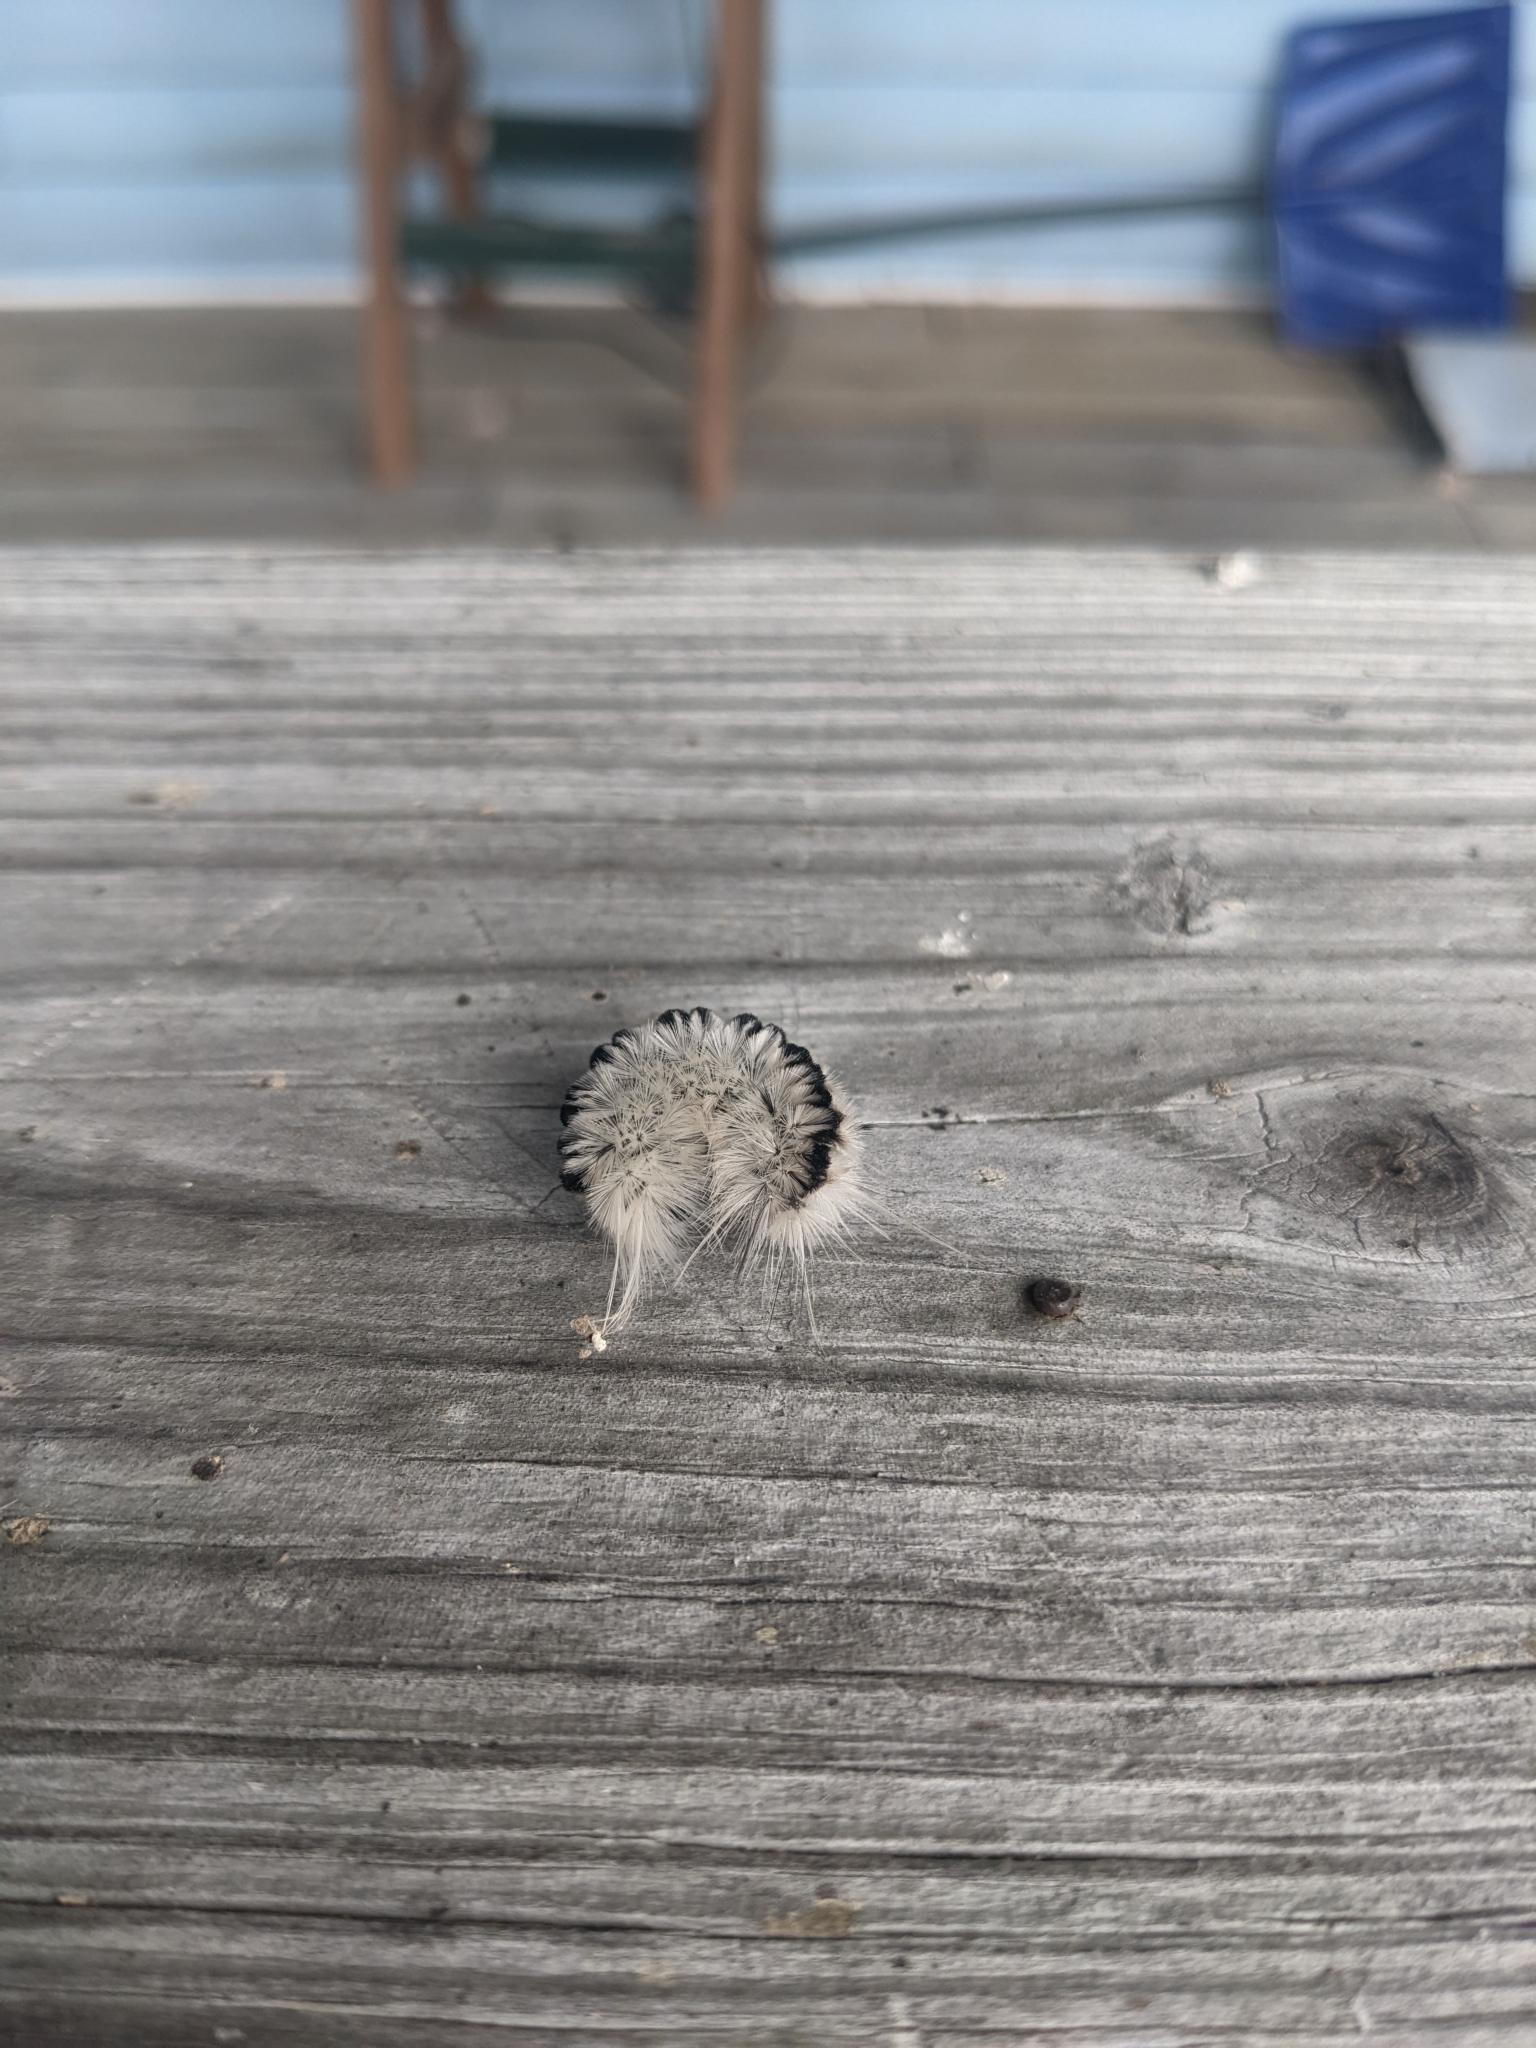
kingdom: Animalia
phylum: Arthropoda
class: Insecta
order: Lepidoptera
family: Erebidae
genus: Lophocampa
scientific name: Lophocampa caryae
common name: Hickory tussock moth
